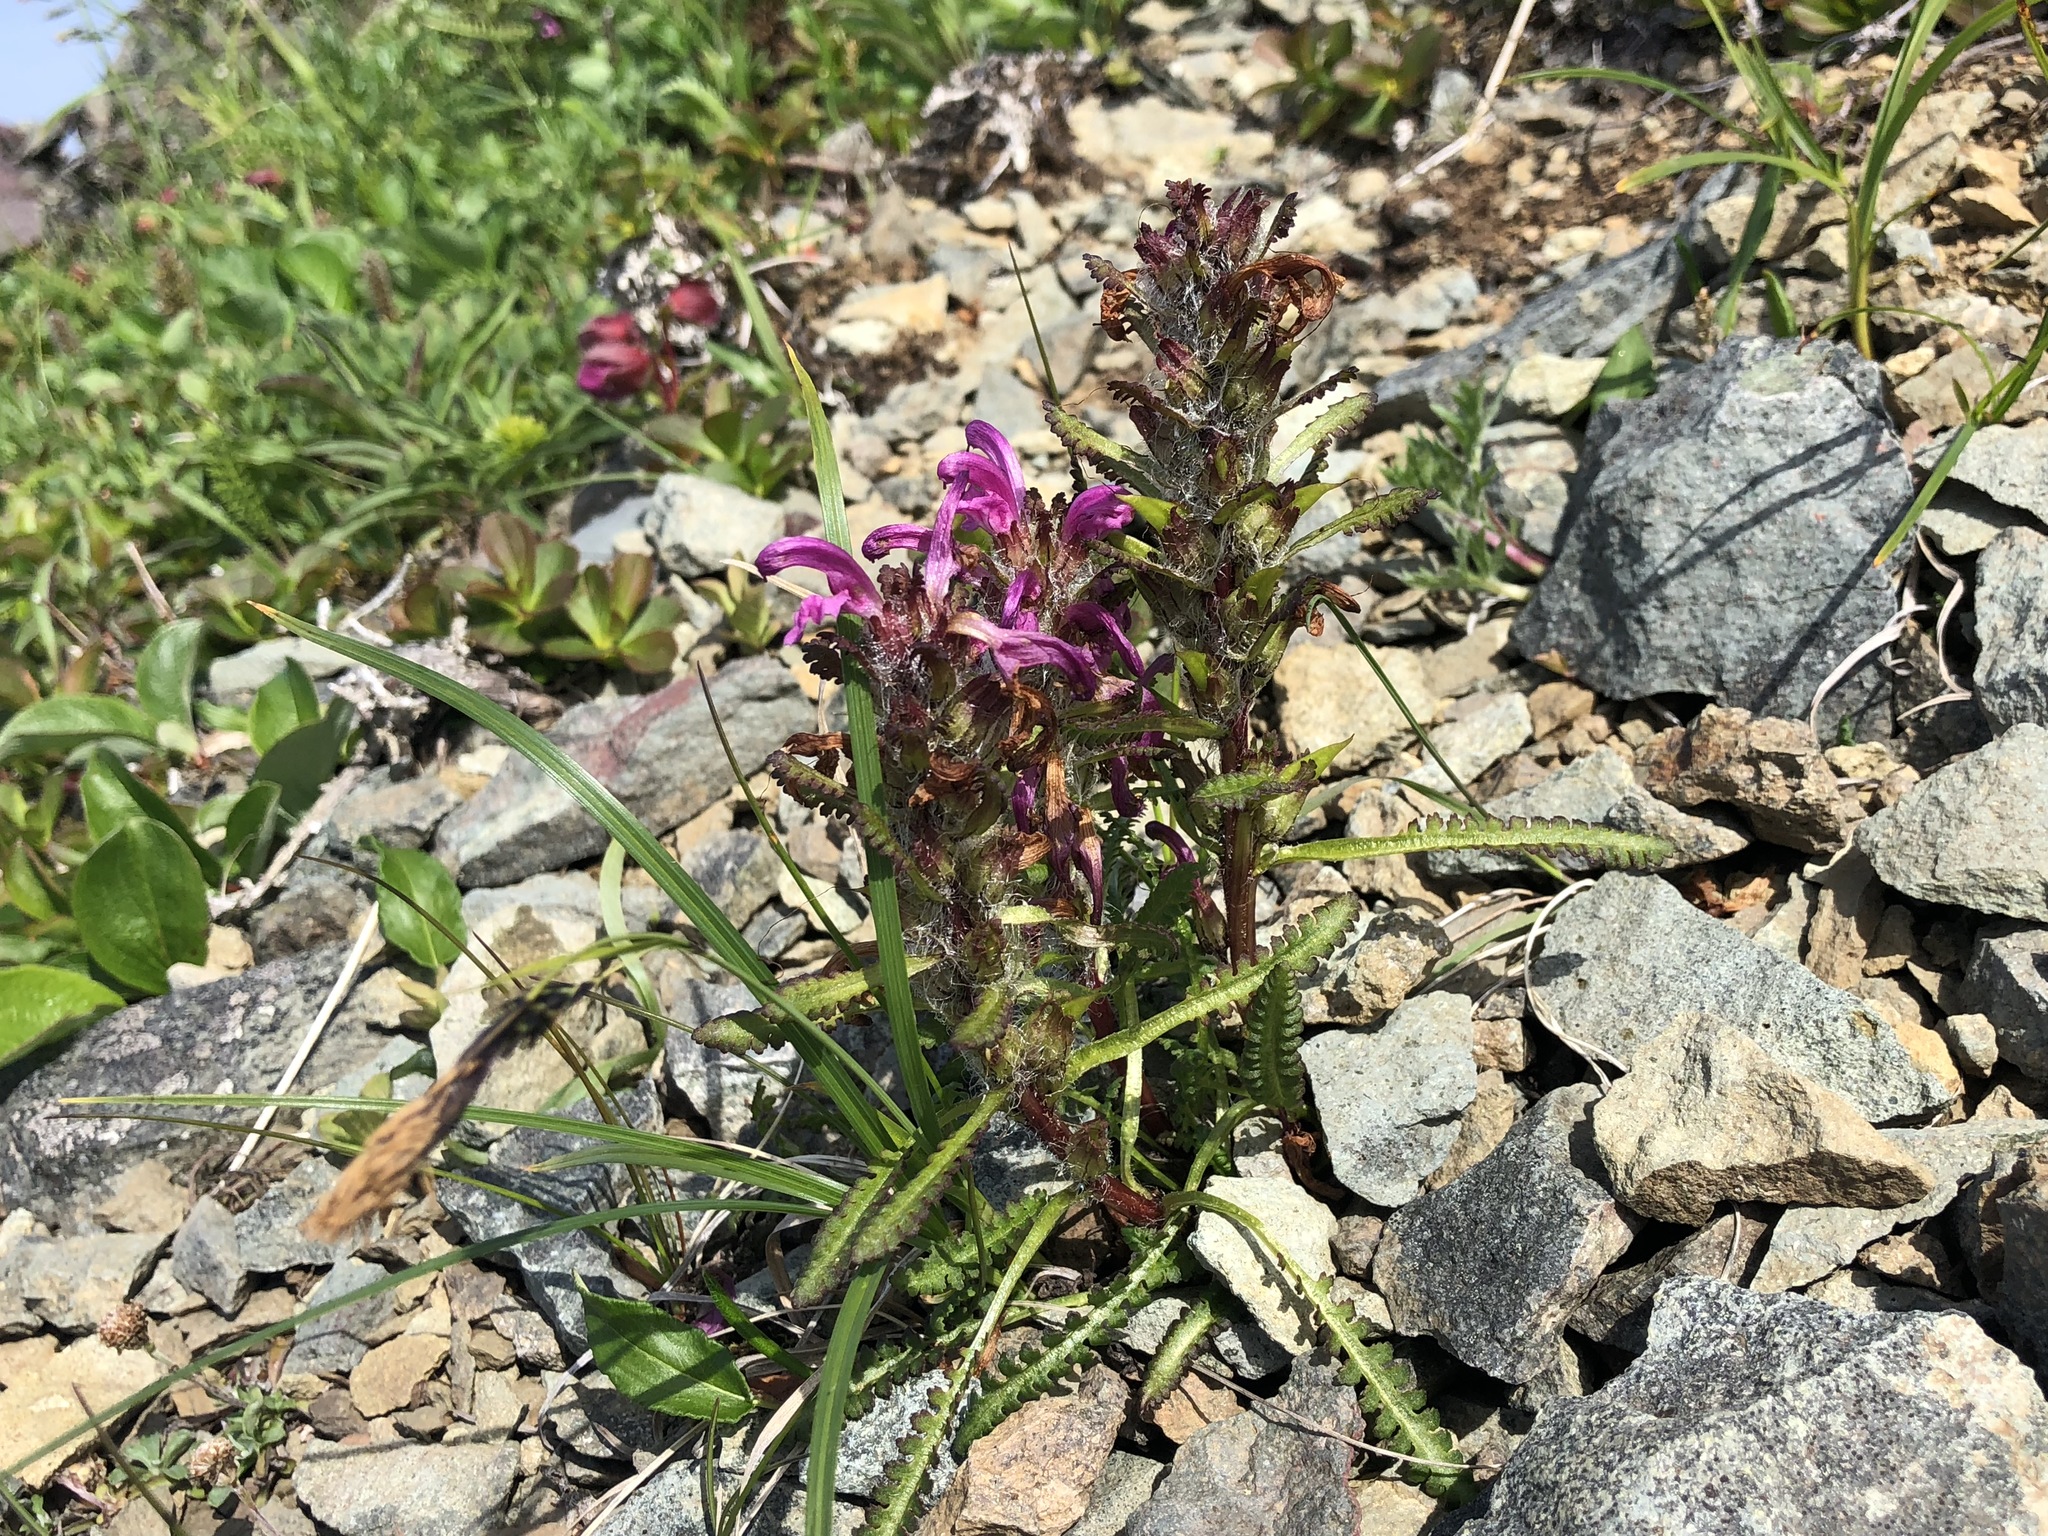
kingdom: Plantae
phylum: Tracheophyta
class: Magnoliopsida
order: Lamiales
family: Orobanchaceae
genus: Pedicularis
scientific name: Pedicularis langsdorffii
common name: Langsdorff's lousewort
